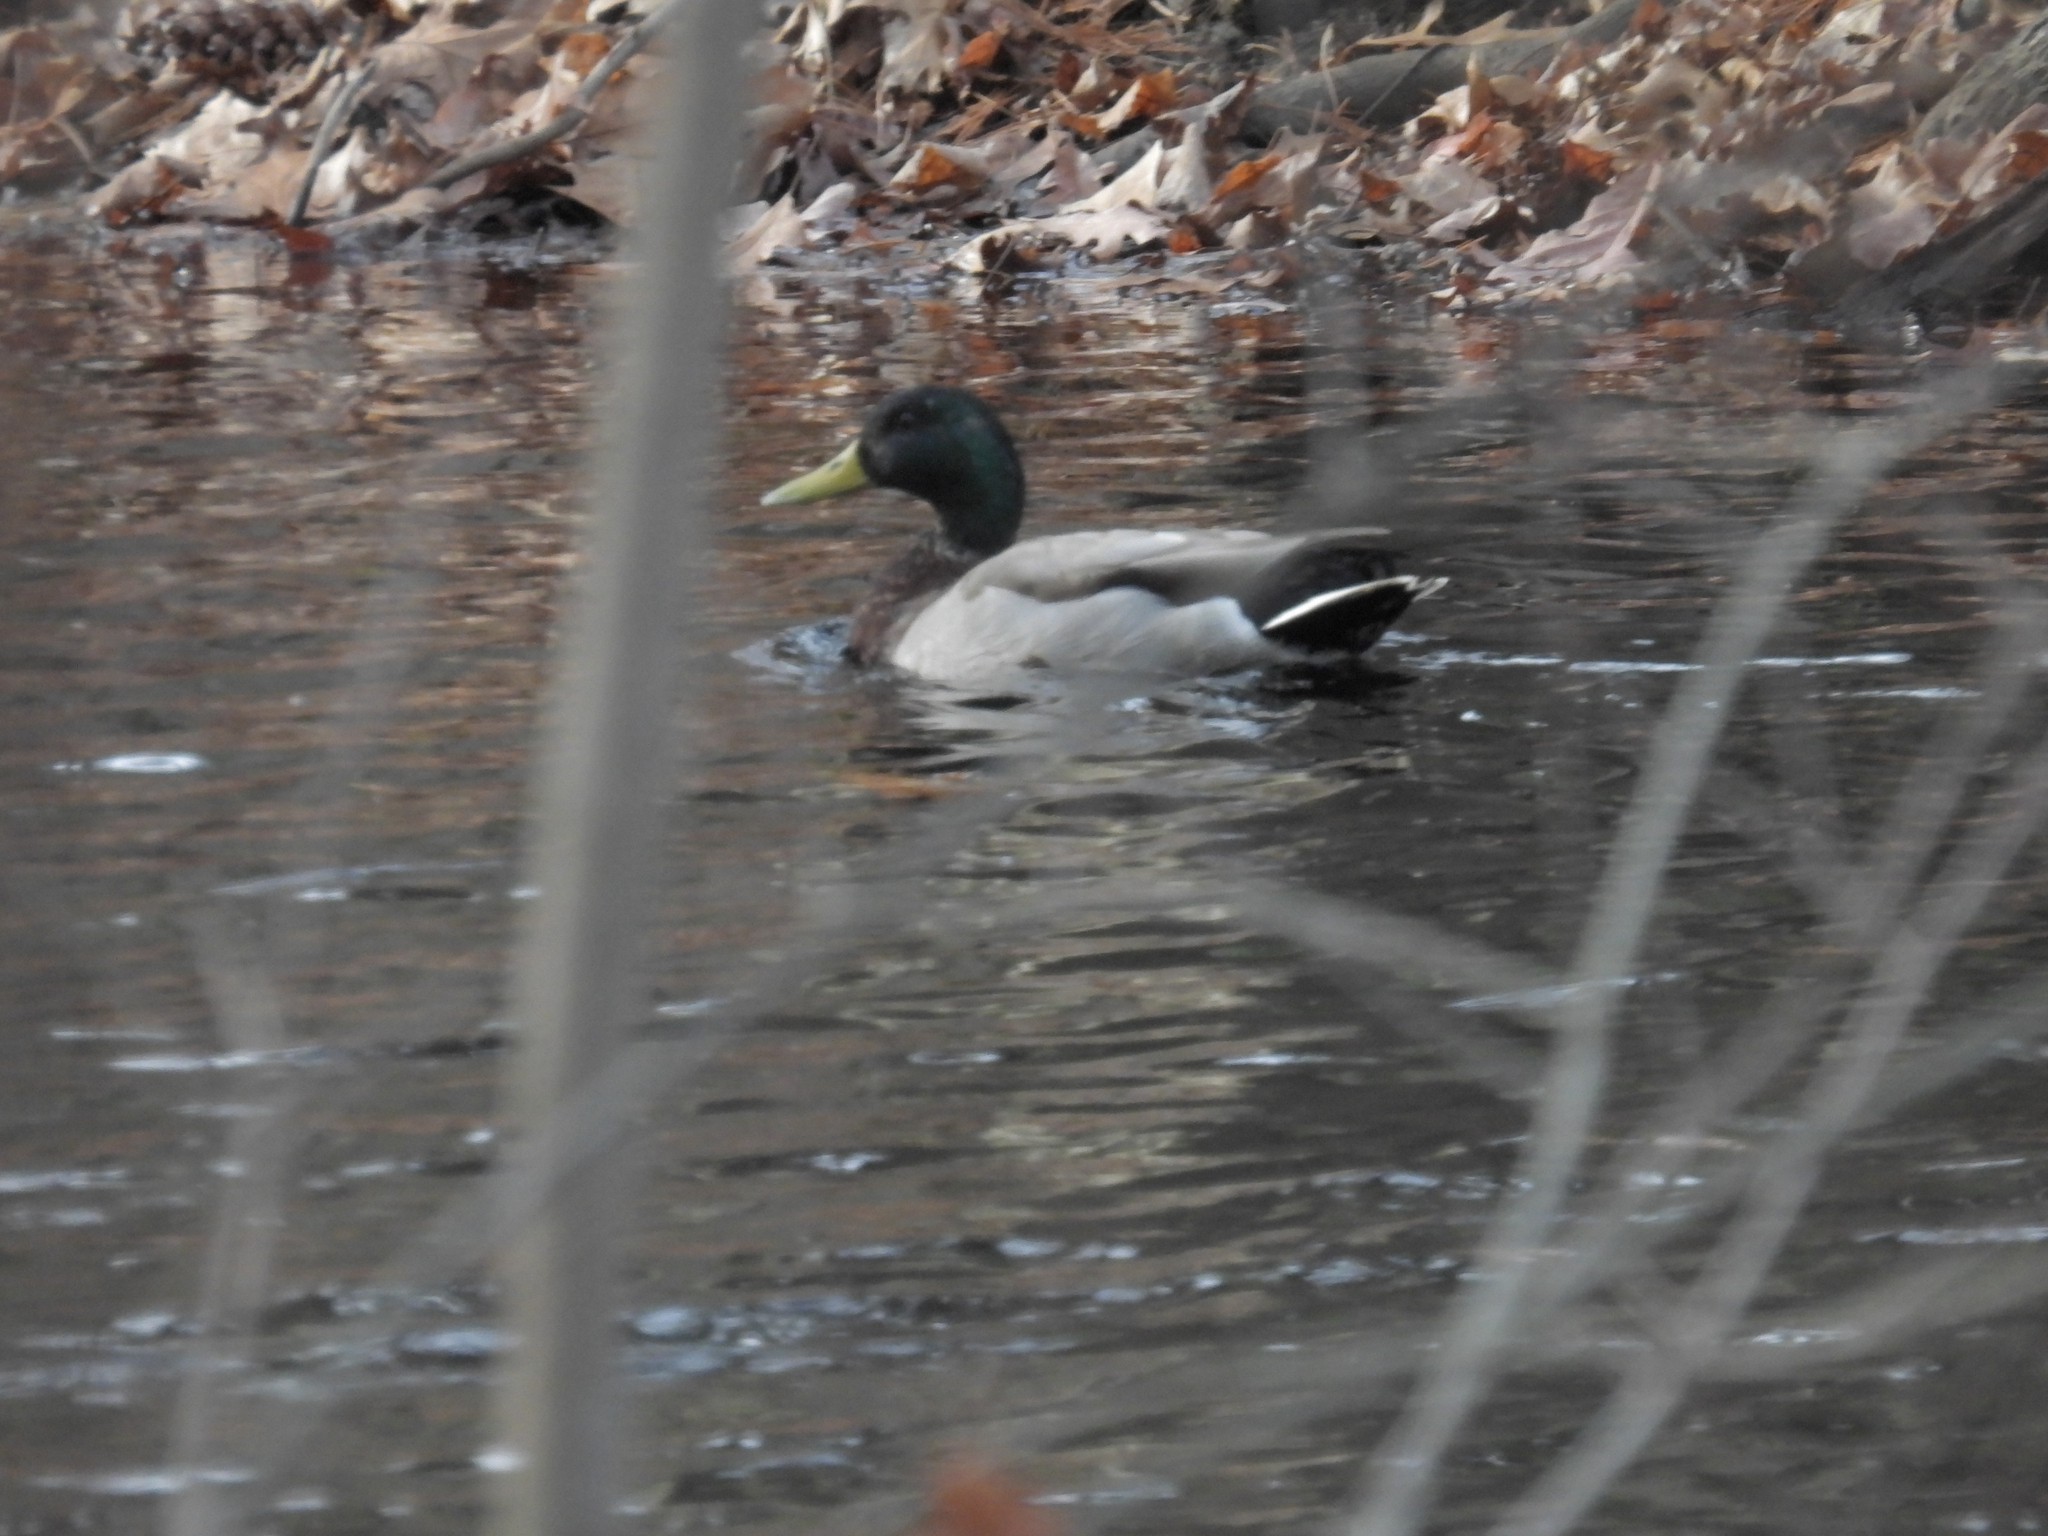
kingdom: Animalia
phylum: Chordata
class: Aves
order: Anseriformes
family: Anatidae
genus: Anas
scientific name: Anas platyrhynchos
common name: Mallard
